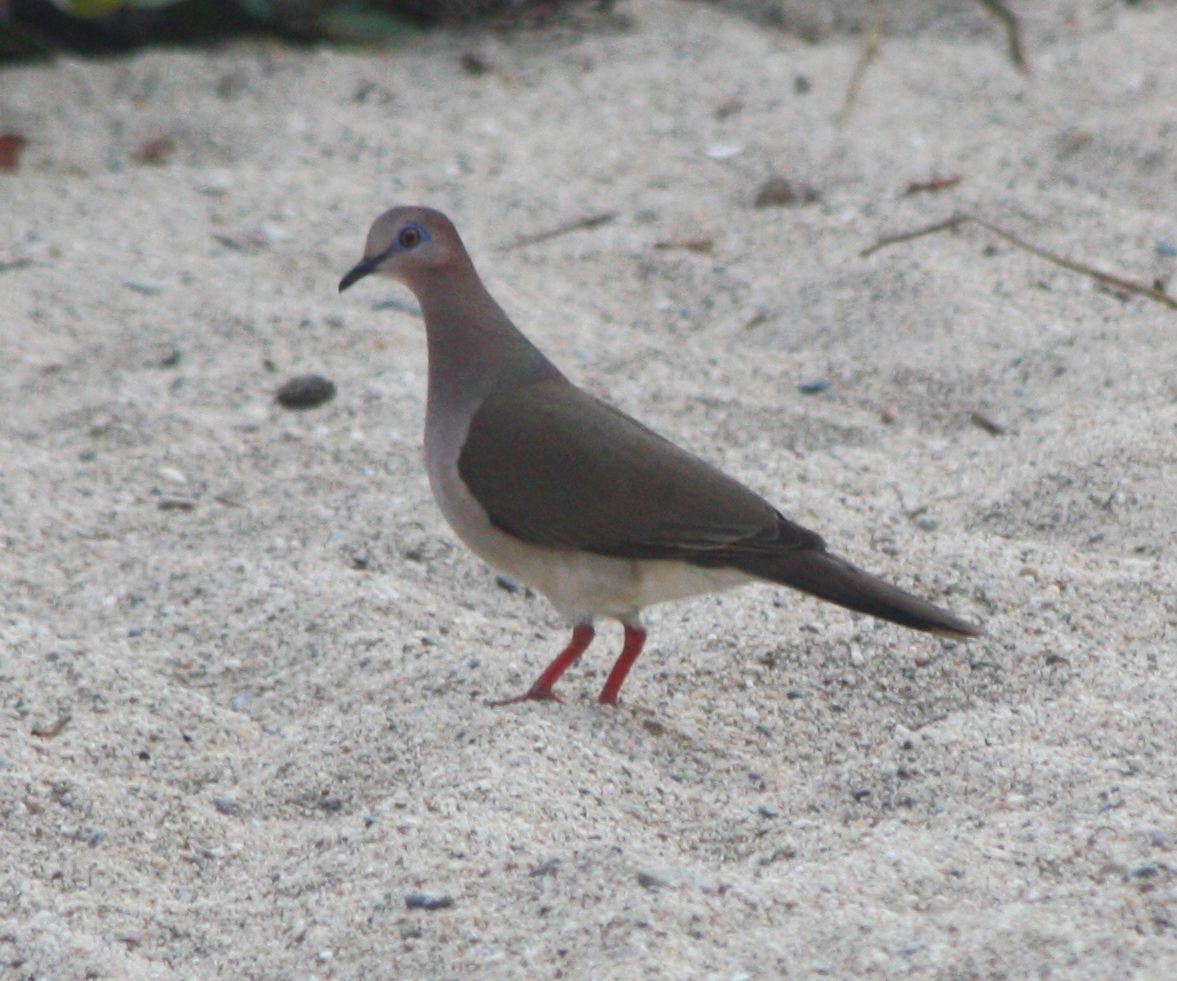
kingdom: Animalia
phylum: Chordata
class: Aves
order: Columbiformes
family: Columbidae
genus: Leptotila
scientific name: Leptotila verreauxi
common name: White-tipped dove
